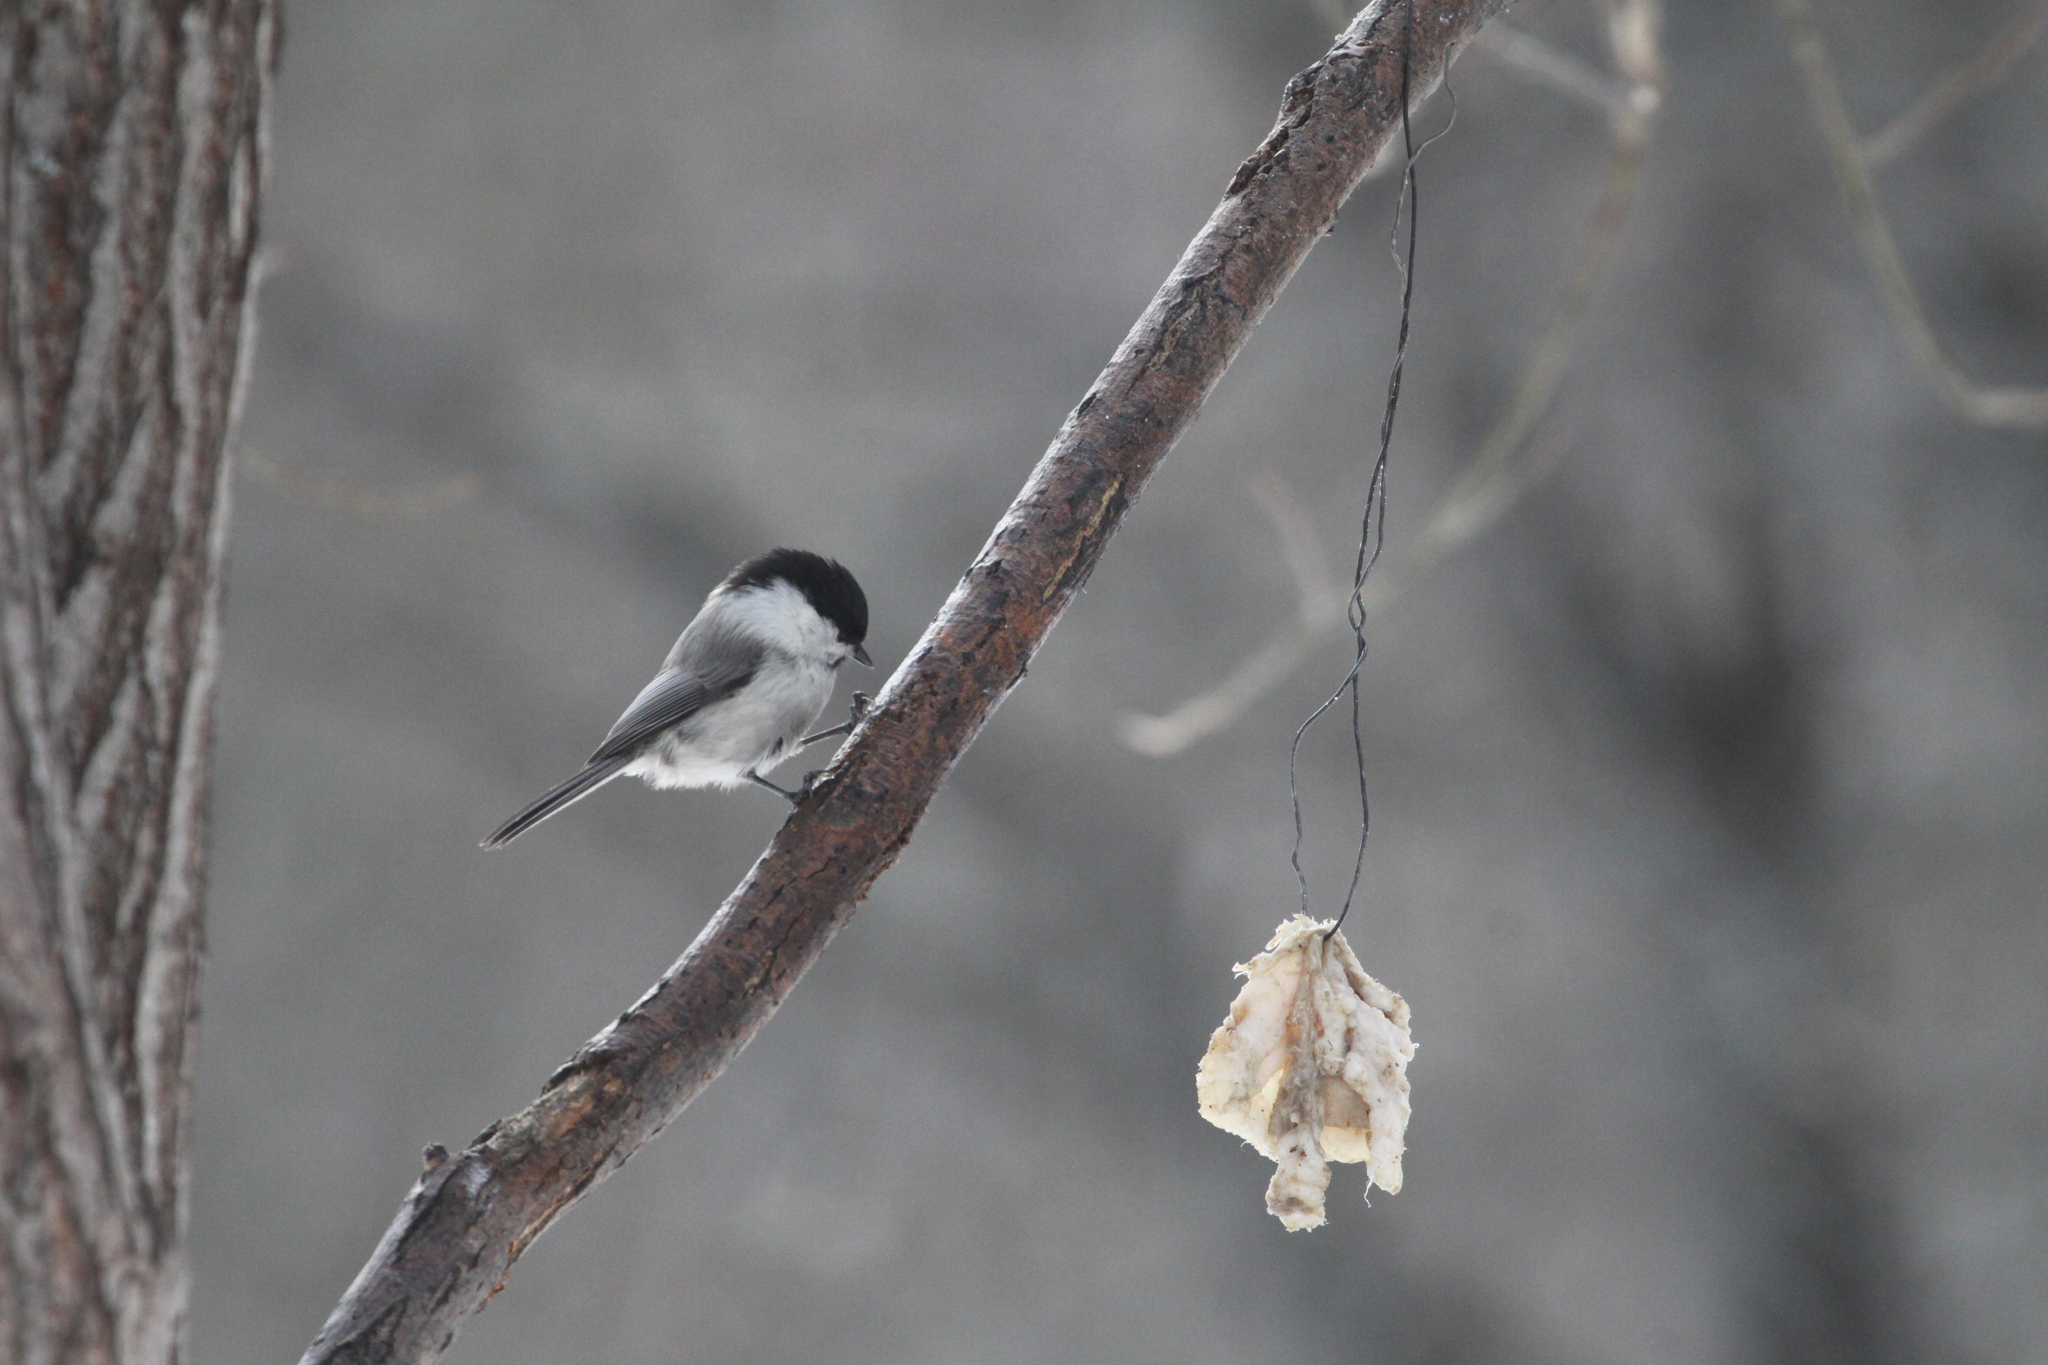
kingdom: Animalia
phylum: Chordata
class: Aves
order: Passeriformes
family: Paridae
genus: Poecile
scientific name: Poecile montanus
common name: Willow tit
